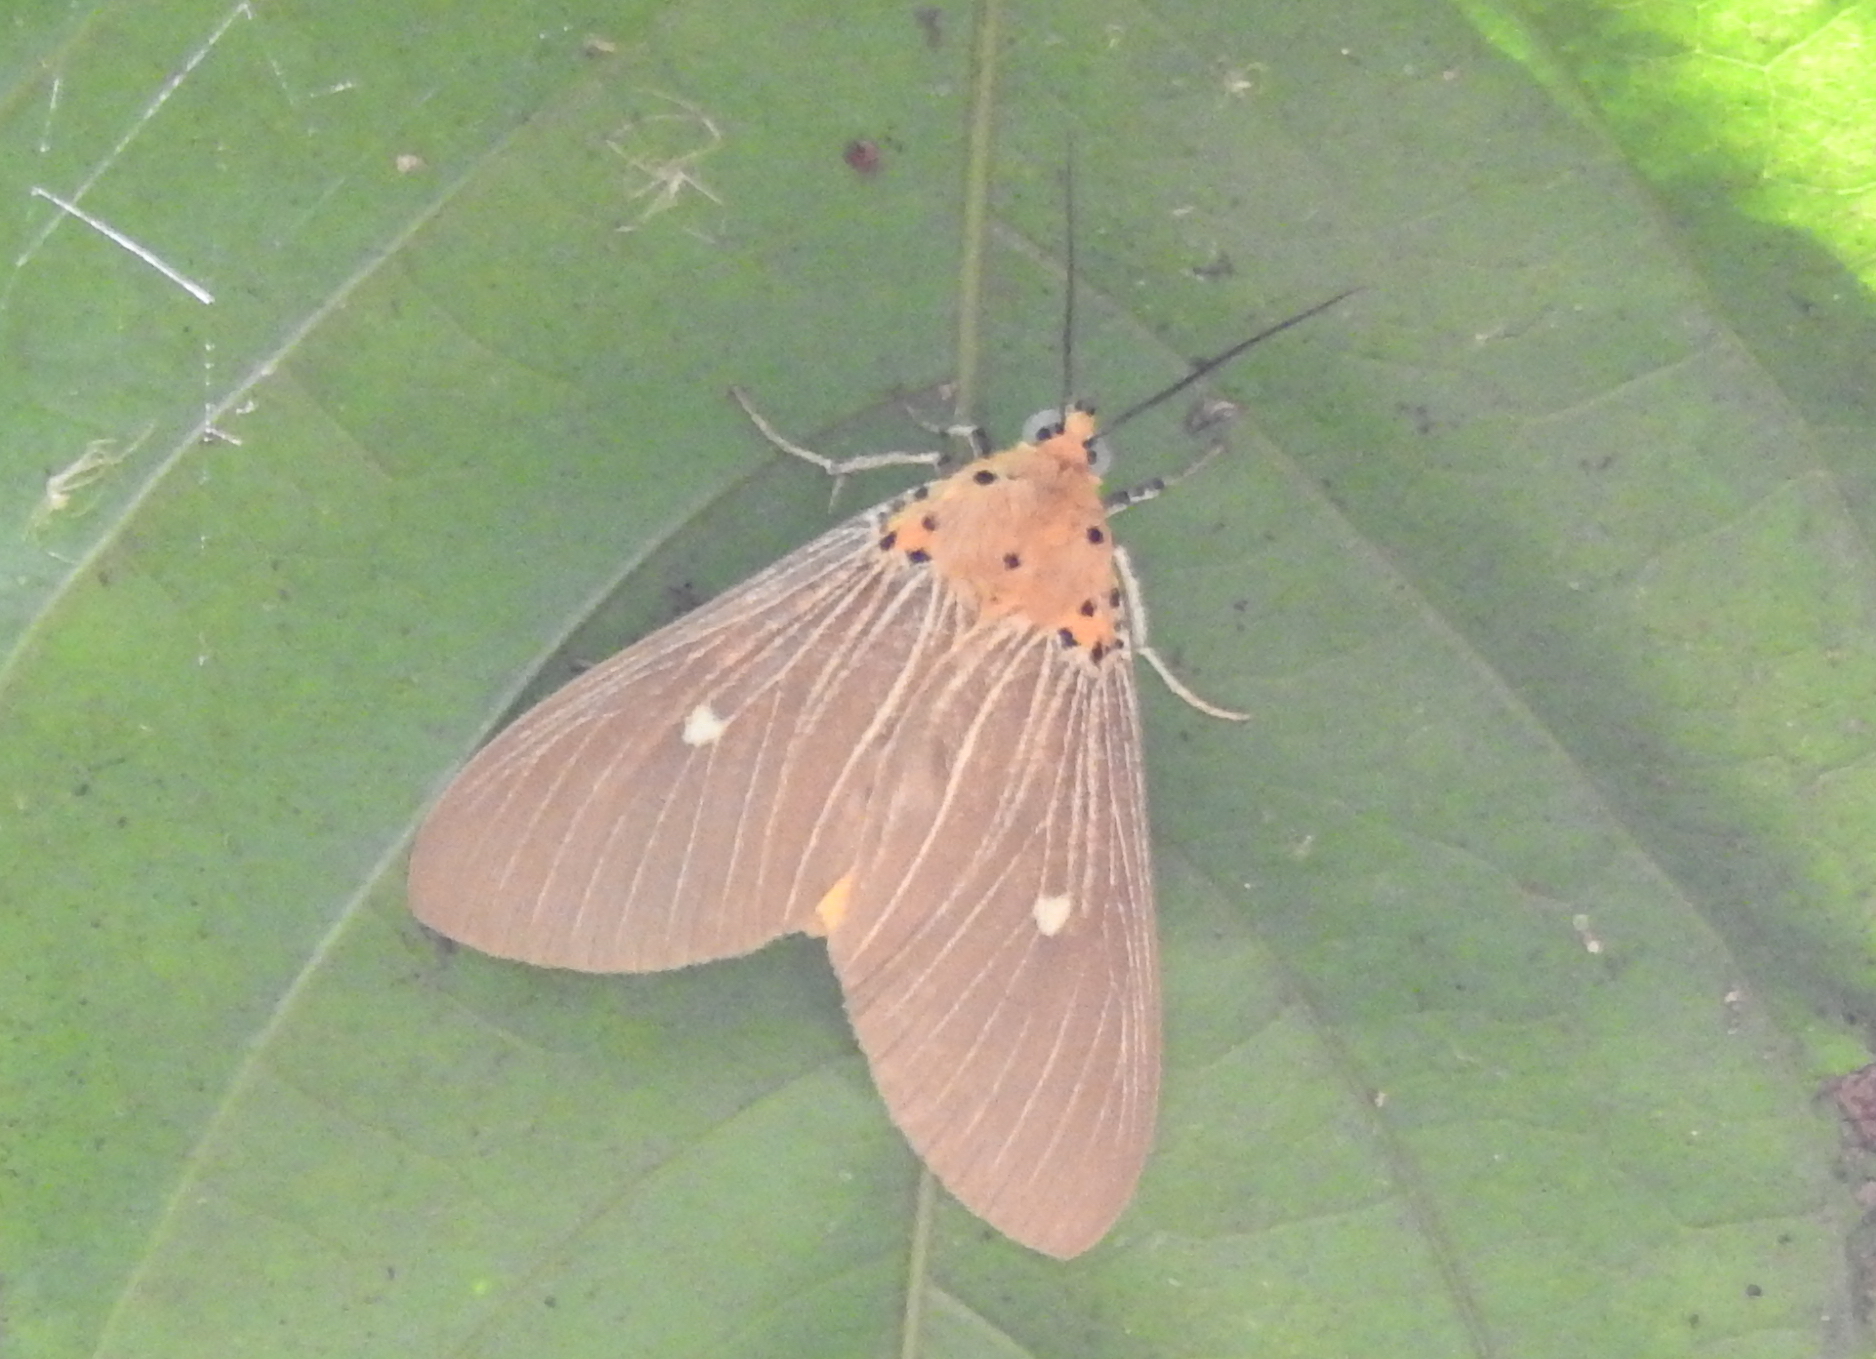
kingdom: Animalia
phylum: Arthropoda
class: Insecta
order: Lepidoptera
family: Erebidae
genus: Asota
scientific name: Asota caricae
